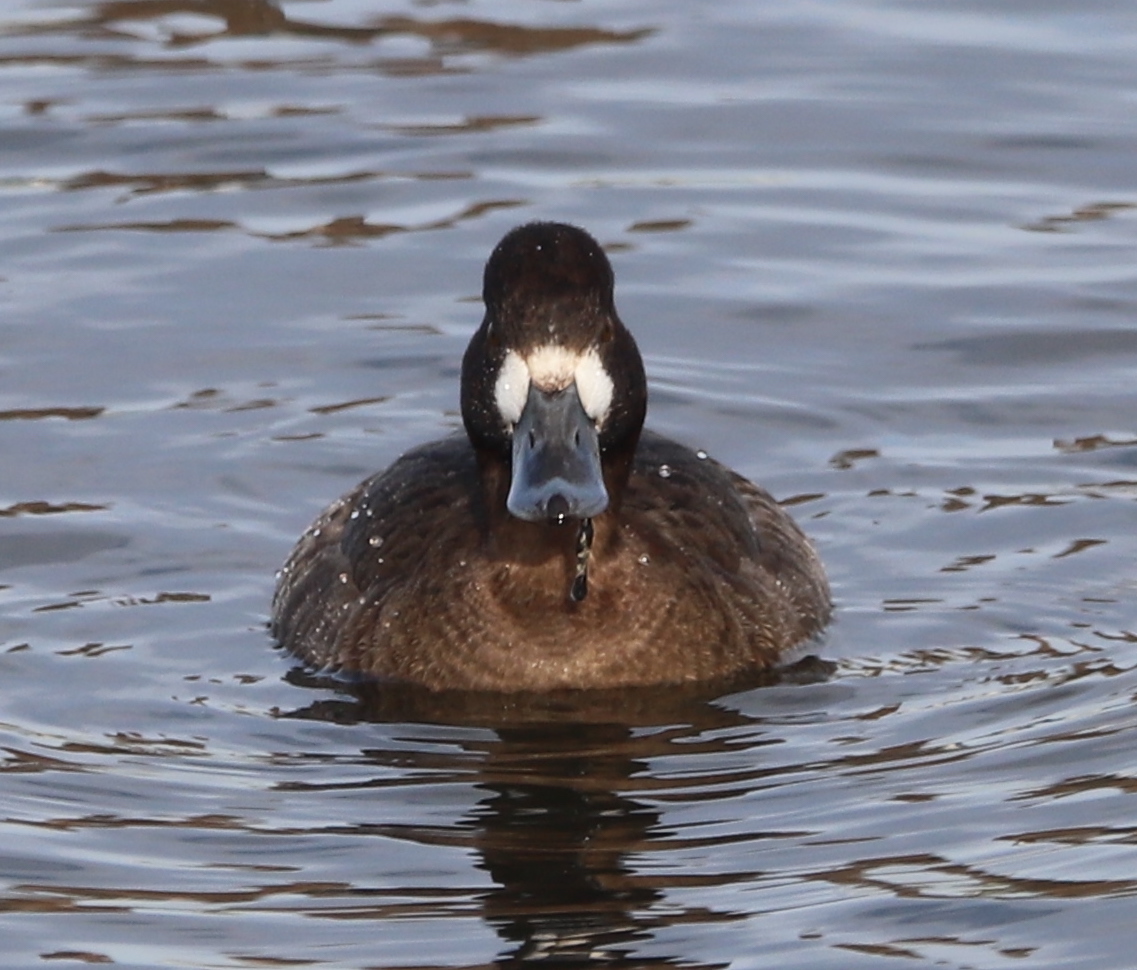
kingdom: Animalia
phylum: Chordata
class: Aves
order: Anseriformes
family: Anatidae
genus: Aythya
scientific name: Aythya affinis
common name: Lesser scaup
